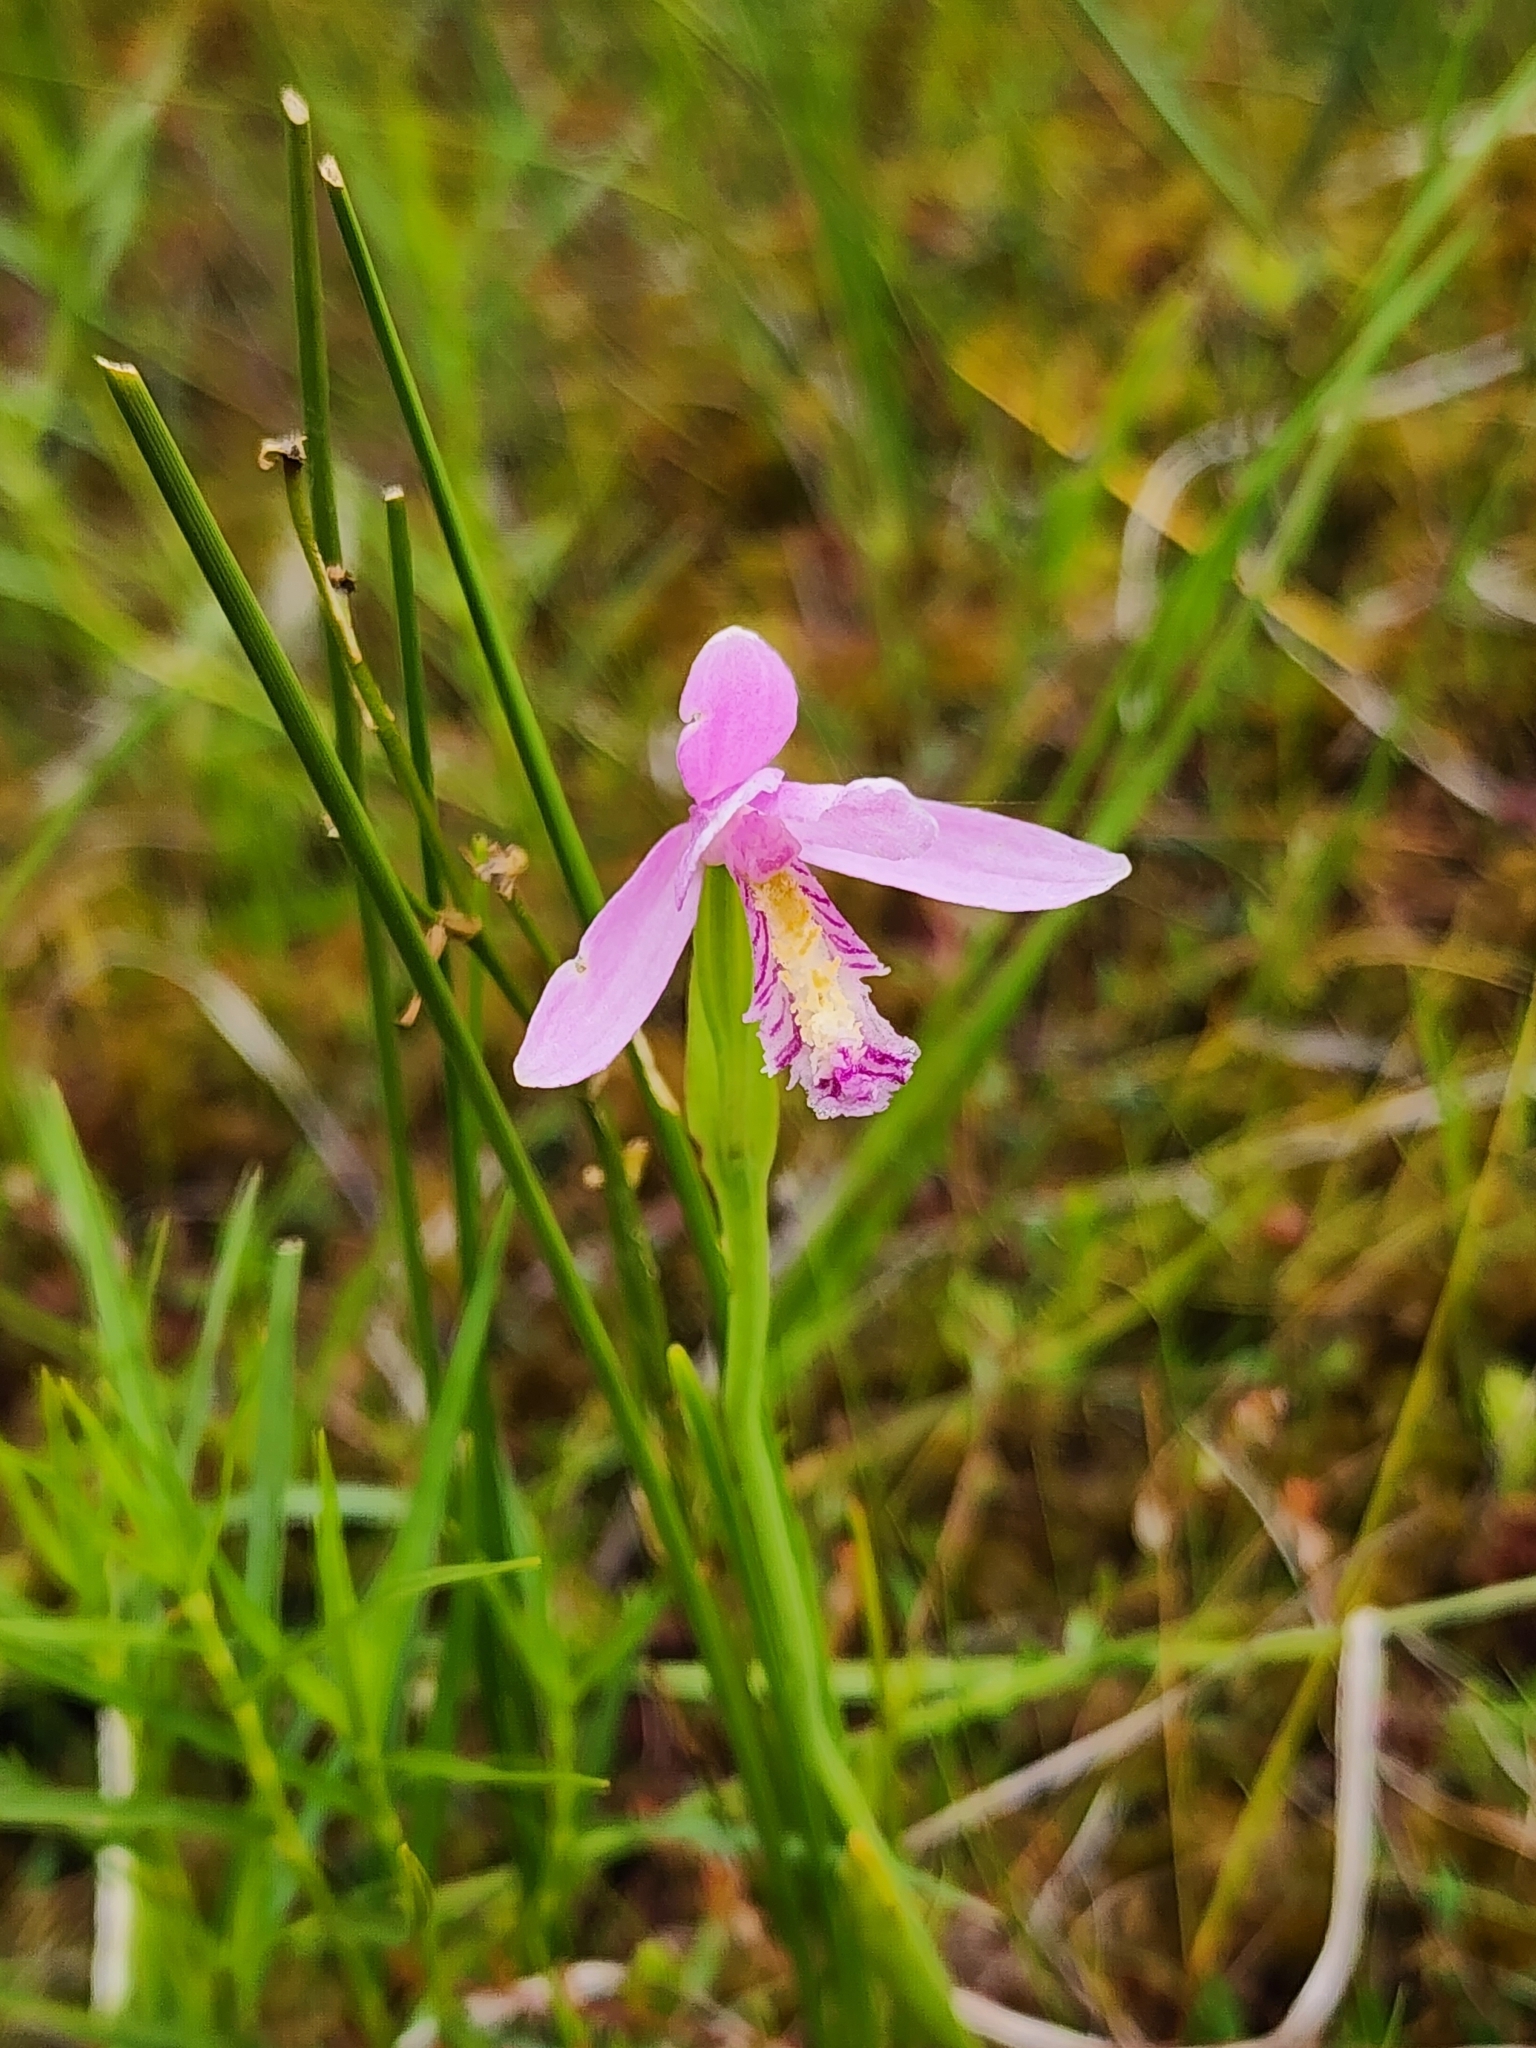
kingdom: Plantae
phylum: Tracheophyta
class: Liliopsida
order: Asparagales
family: Orchidaceae
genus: Pogonia
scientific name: Pogonia ophioglossoides
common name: Rose pogonia
